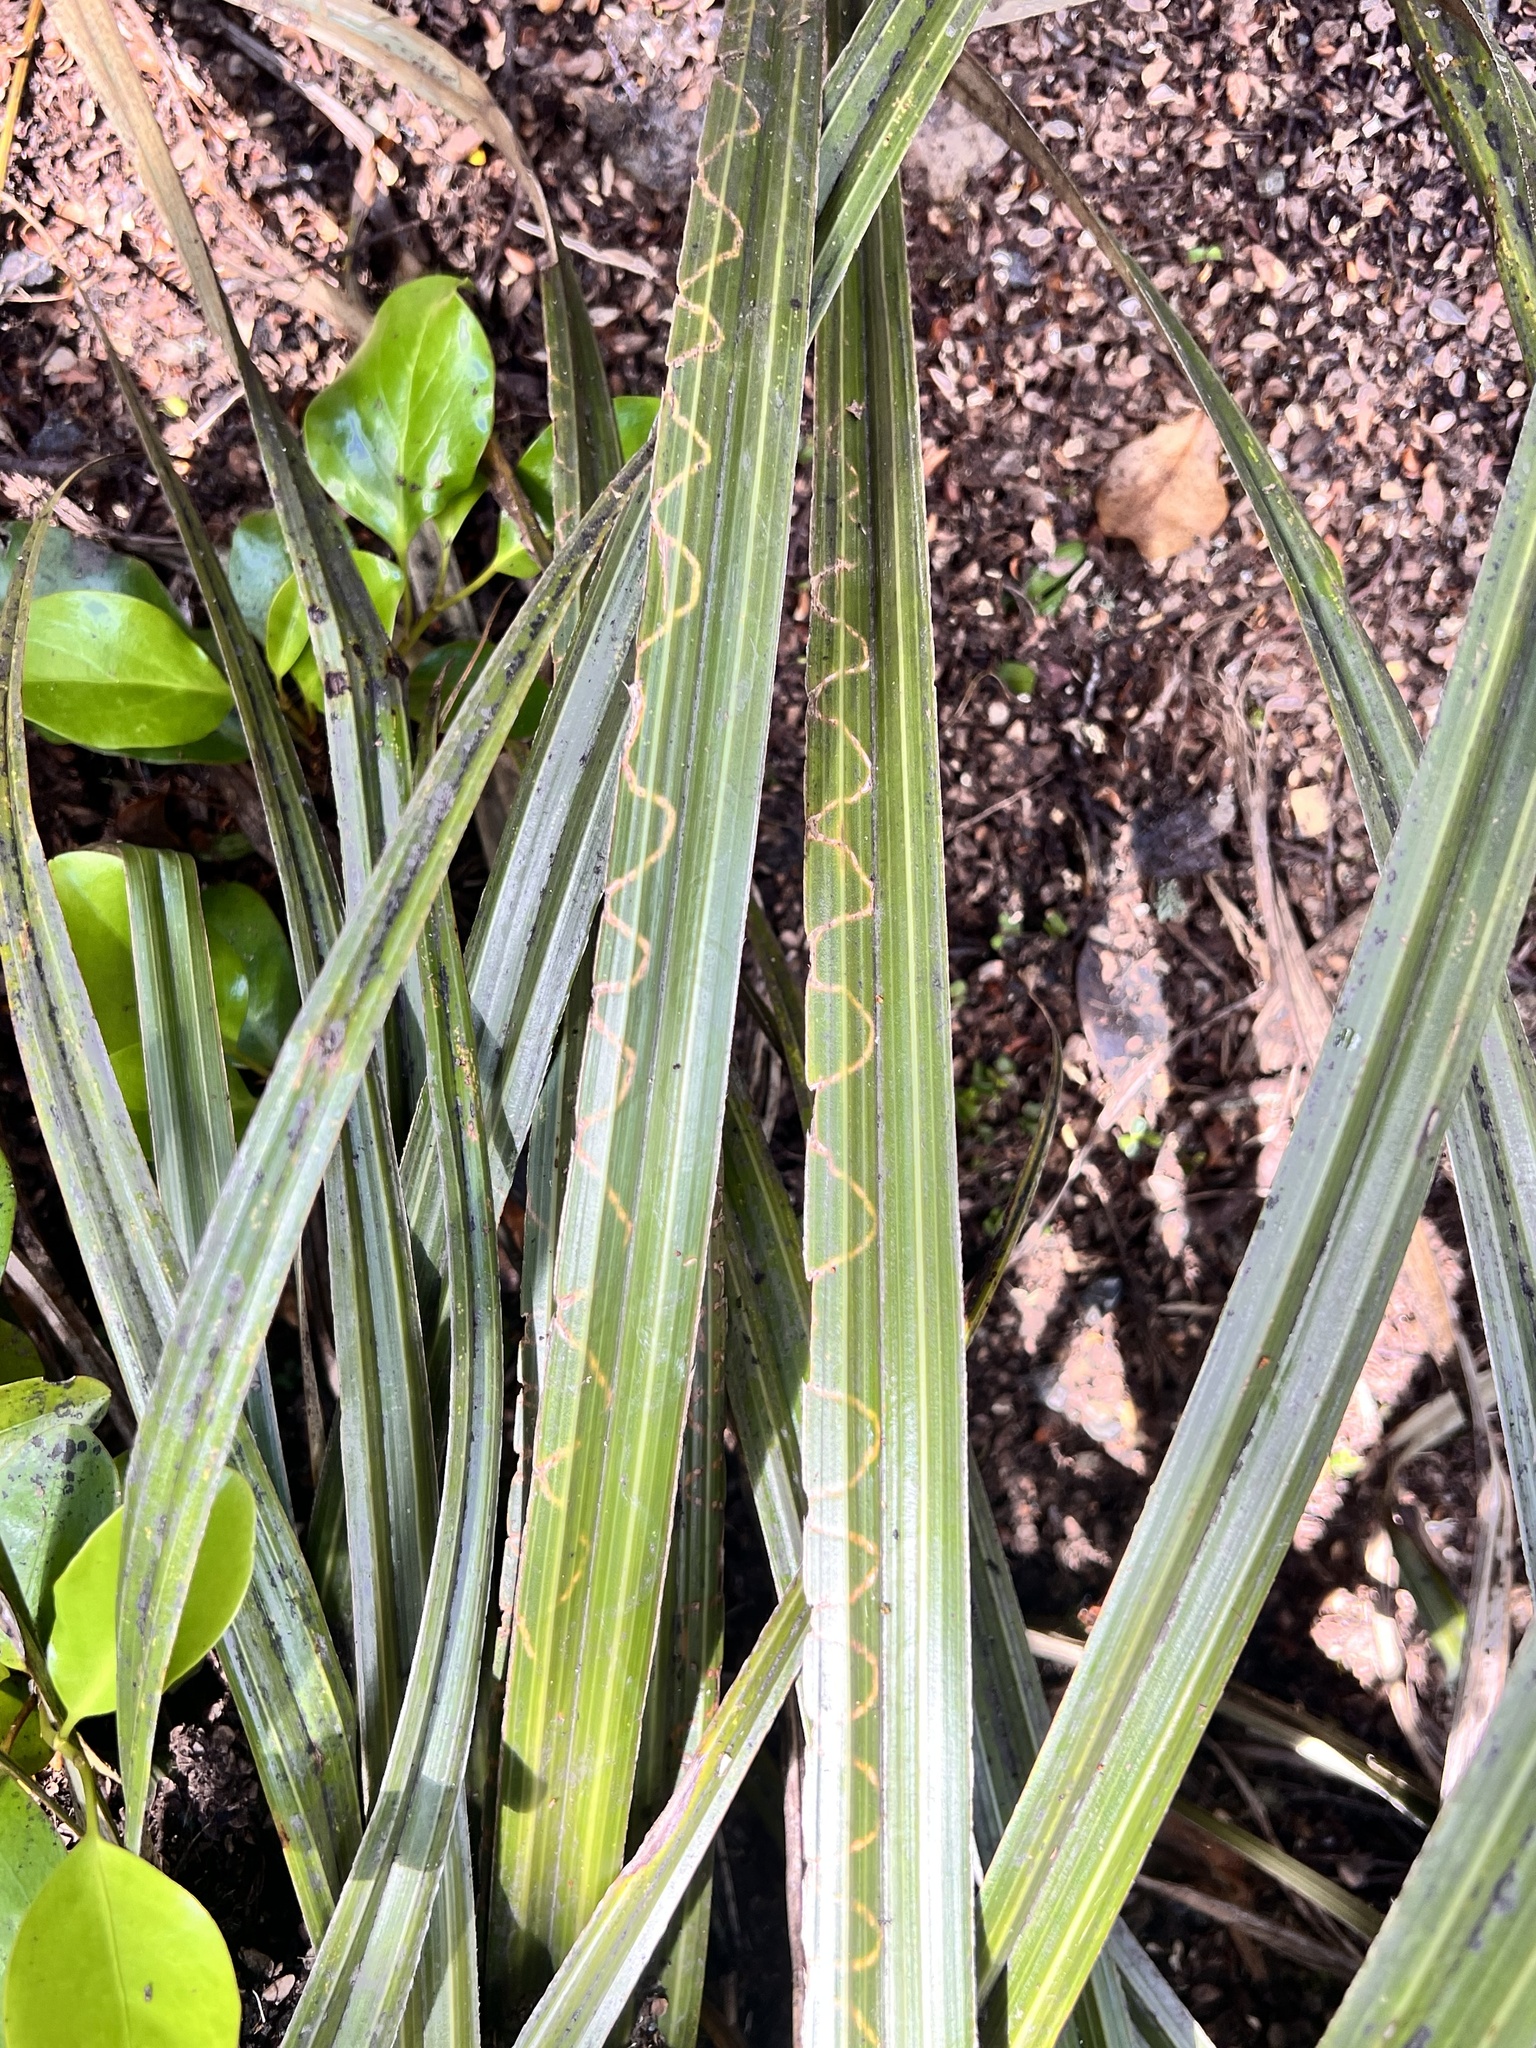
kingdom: Animalia
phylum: Arthropoda
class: Insecta
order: Lepidoptera
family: Plutellidae
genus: Charixena
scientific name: Charixena iridoxa
